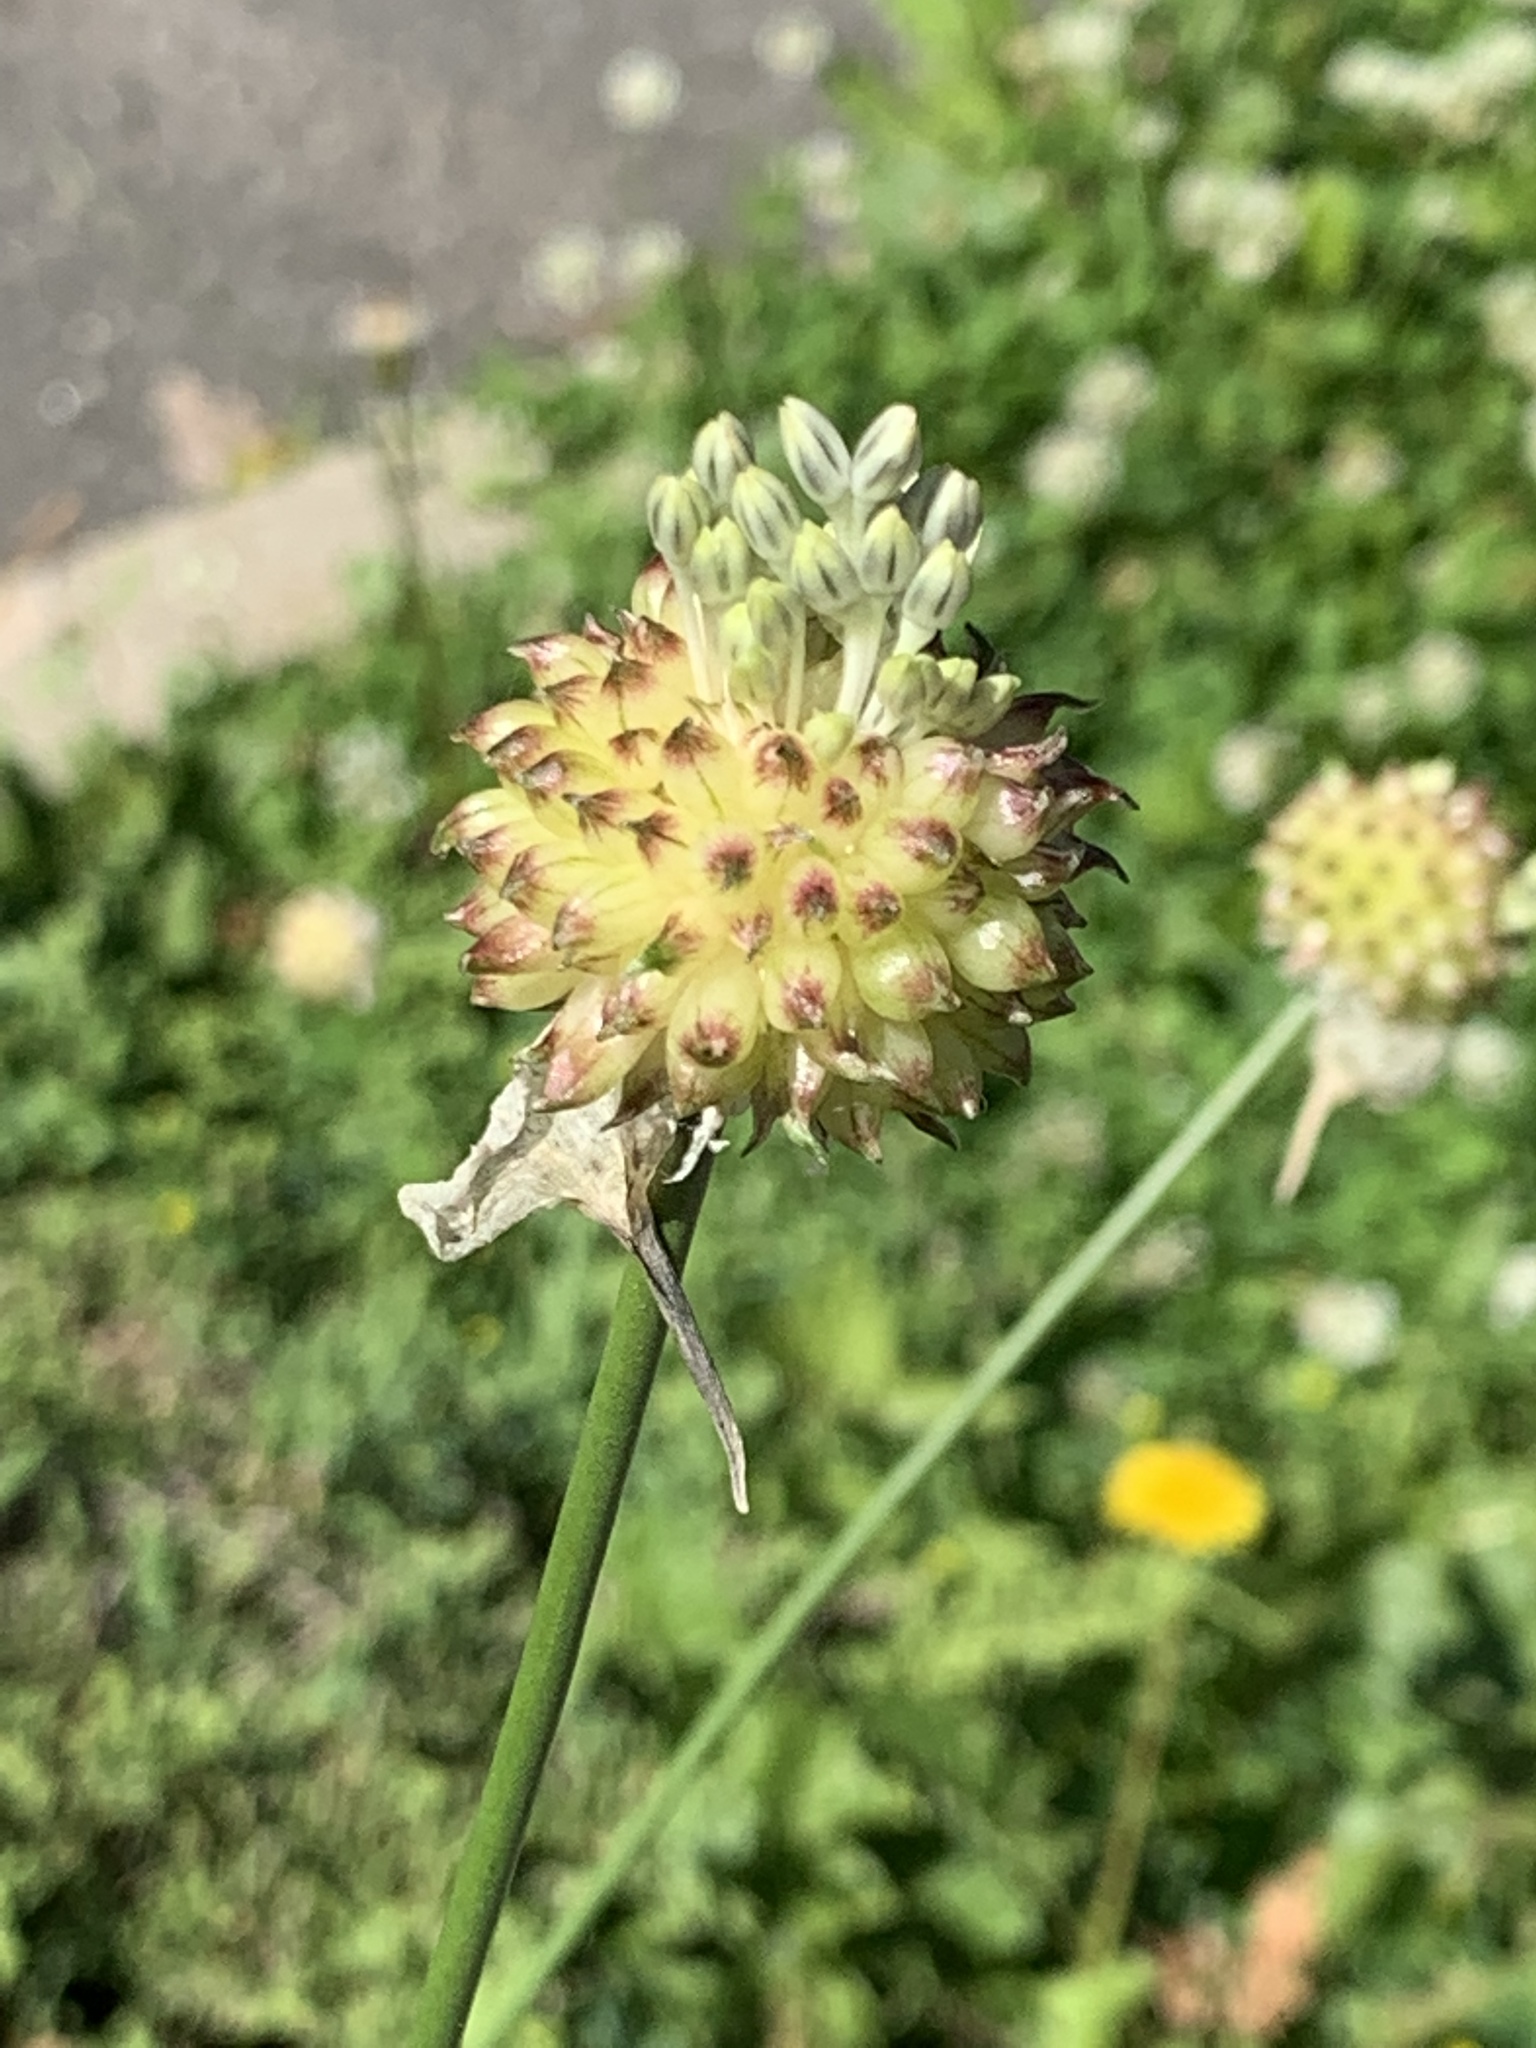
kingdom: Plantae
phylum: Tracheophyta
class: Liliopsida
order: Asparagales
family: Amaryllidaceae
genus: Allium
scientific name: Allium vineale
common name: Crow garlic
